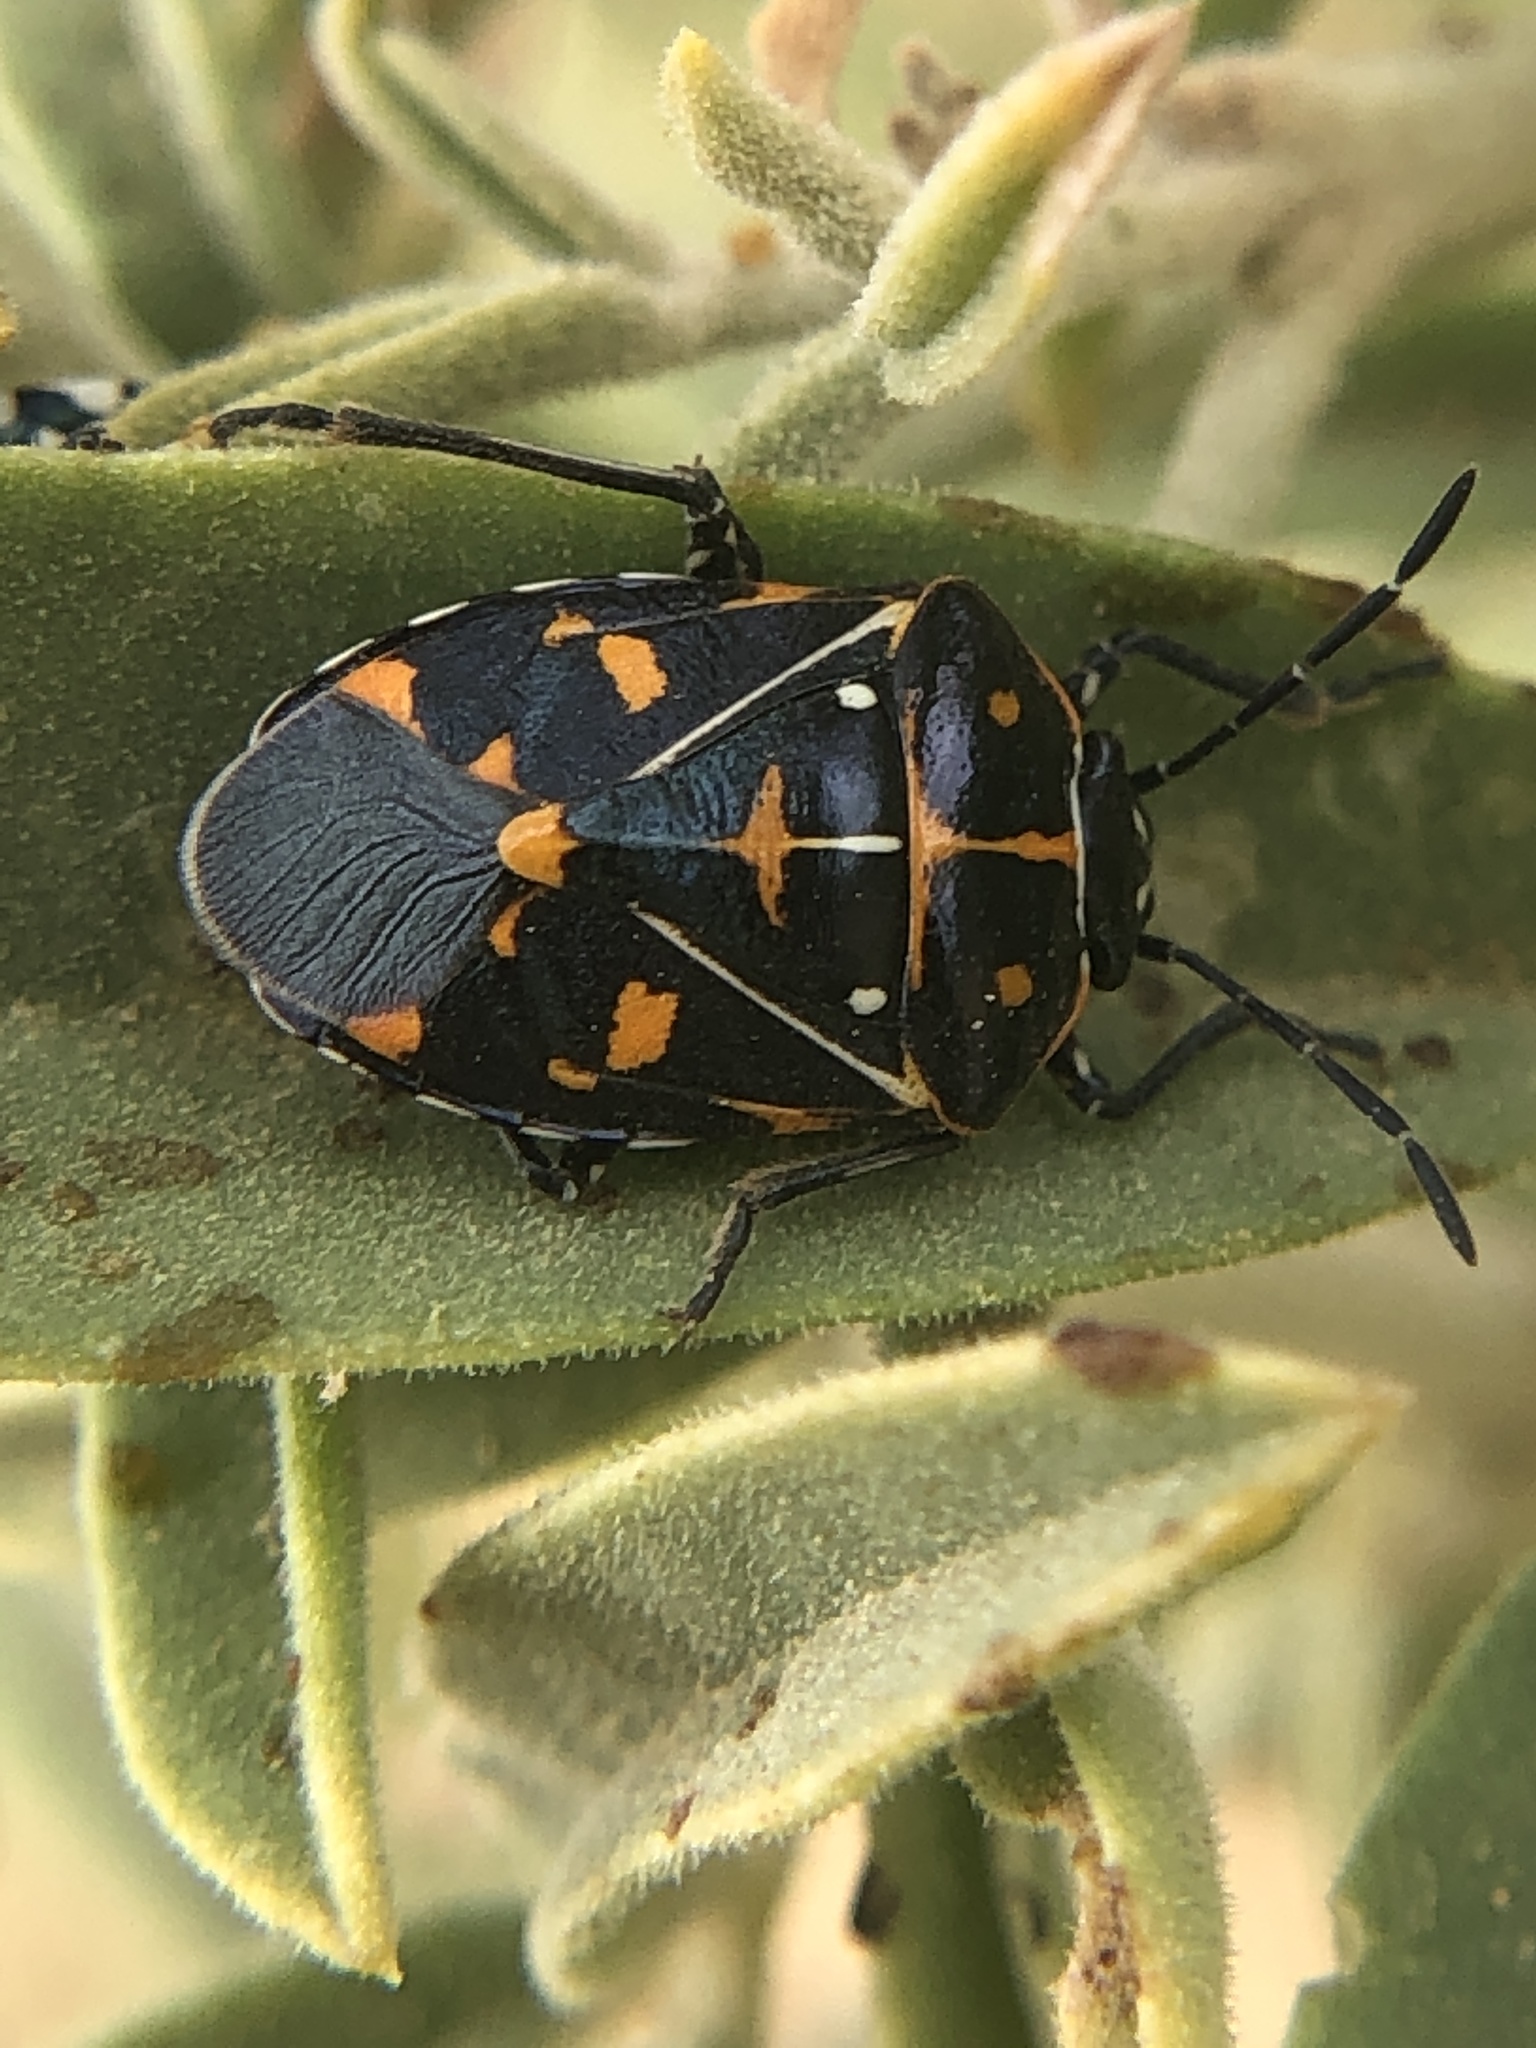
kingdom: Animalia
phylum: Arthropoda
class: Insecta
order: Hemiptera
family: Pentatomidae
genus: Murgantia
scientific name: Murgantia histrionica
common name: Harlequin bug
